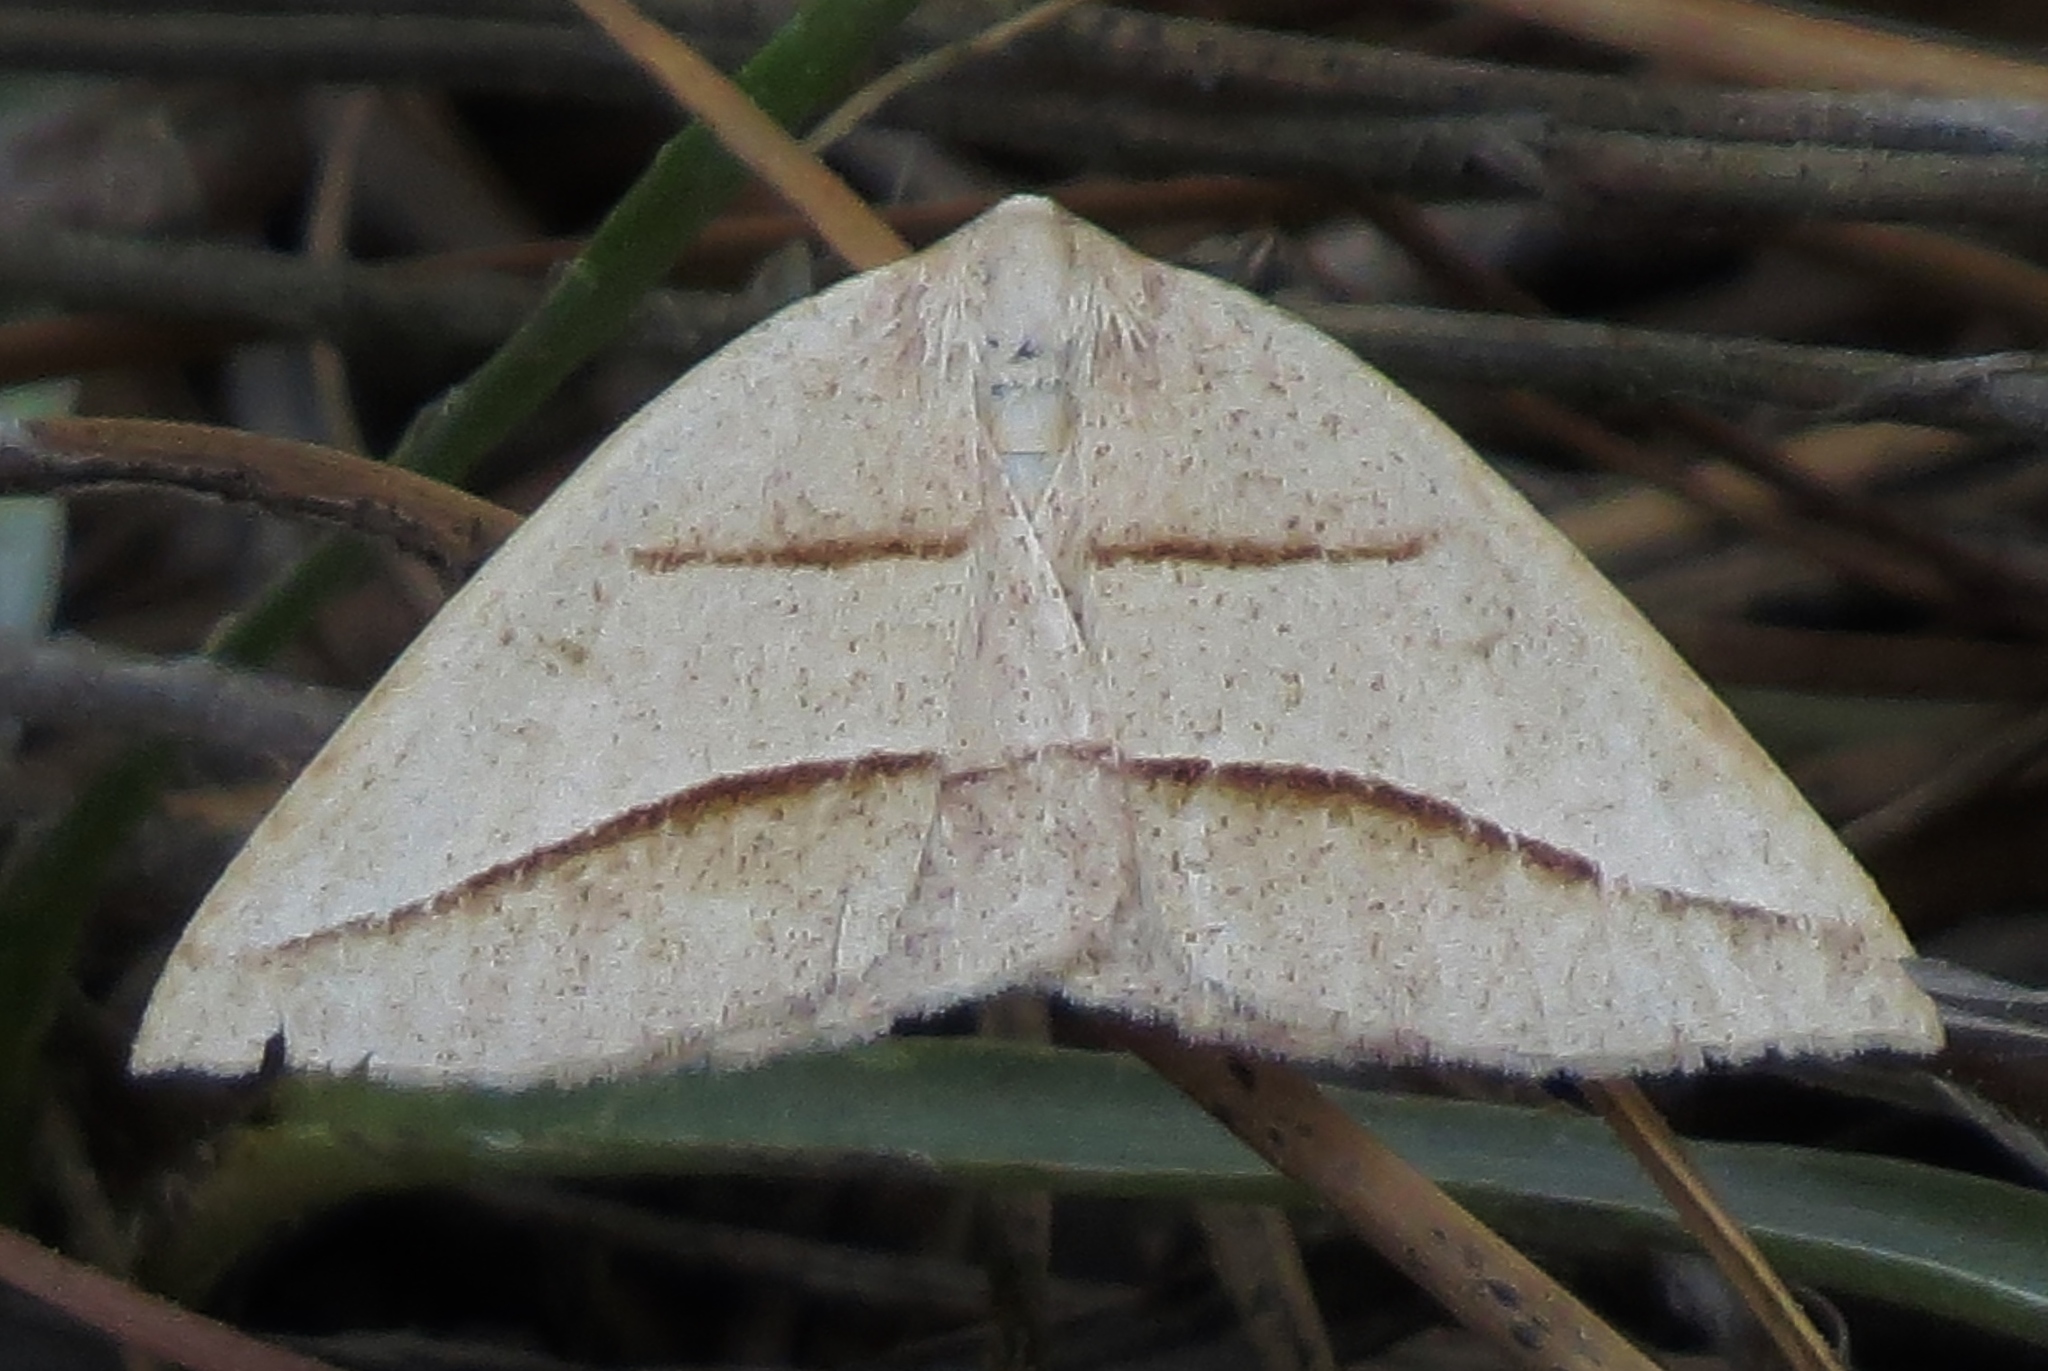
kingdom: Animalia
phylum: Arthropoda
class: Insecta
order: Lepidoptera
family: Pterophoridae
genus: Pterophorus
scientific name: Pterophorus Petrophora divisata
